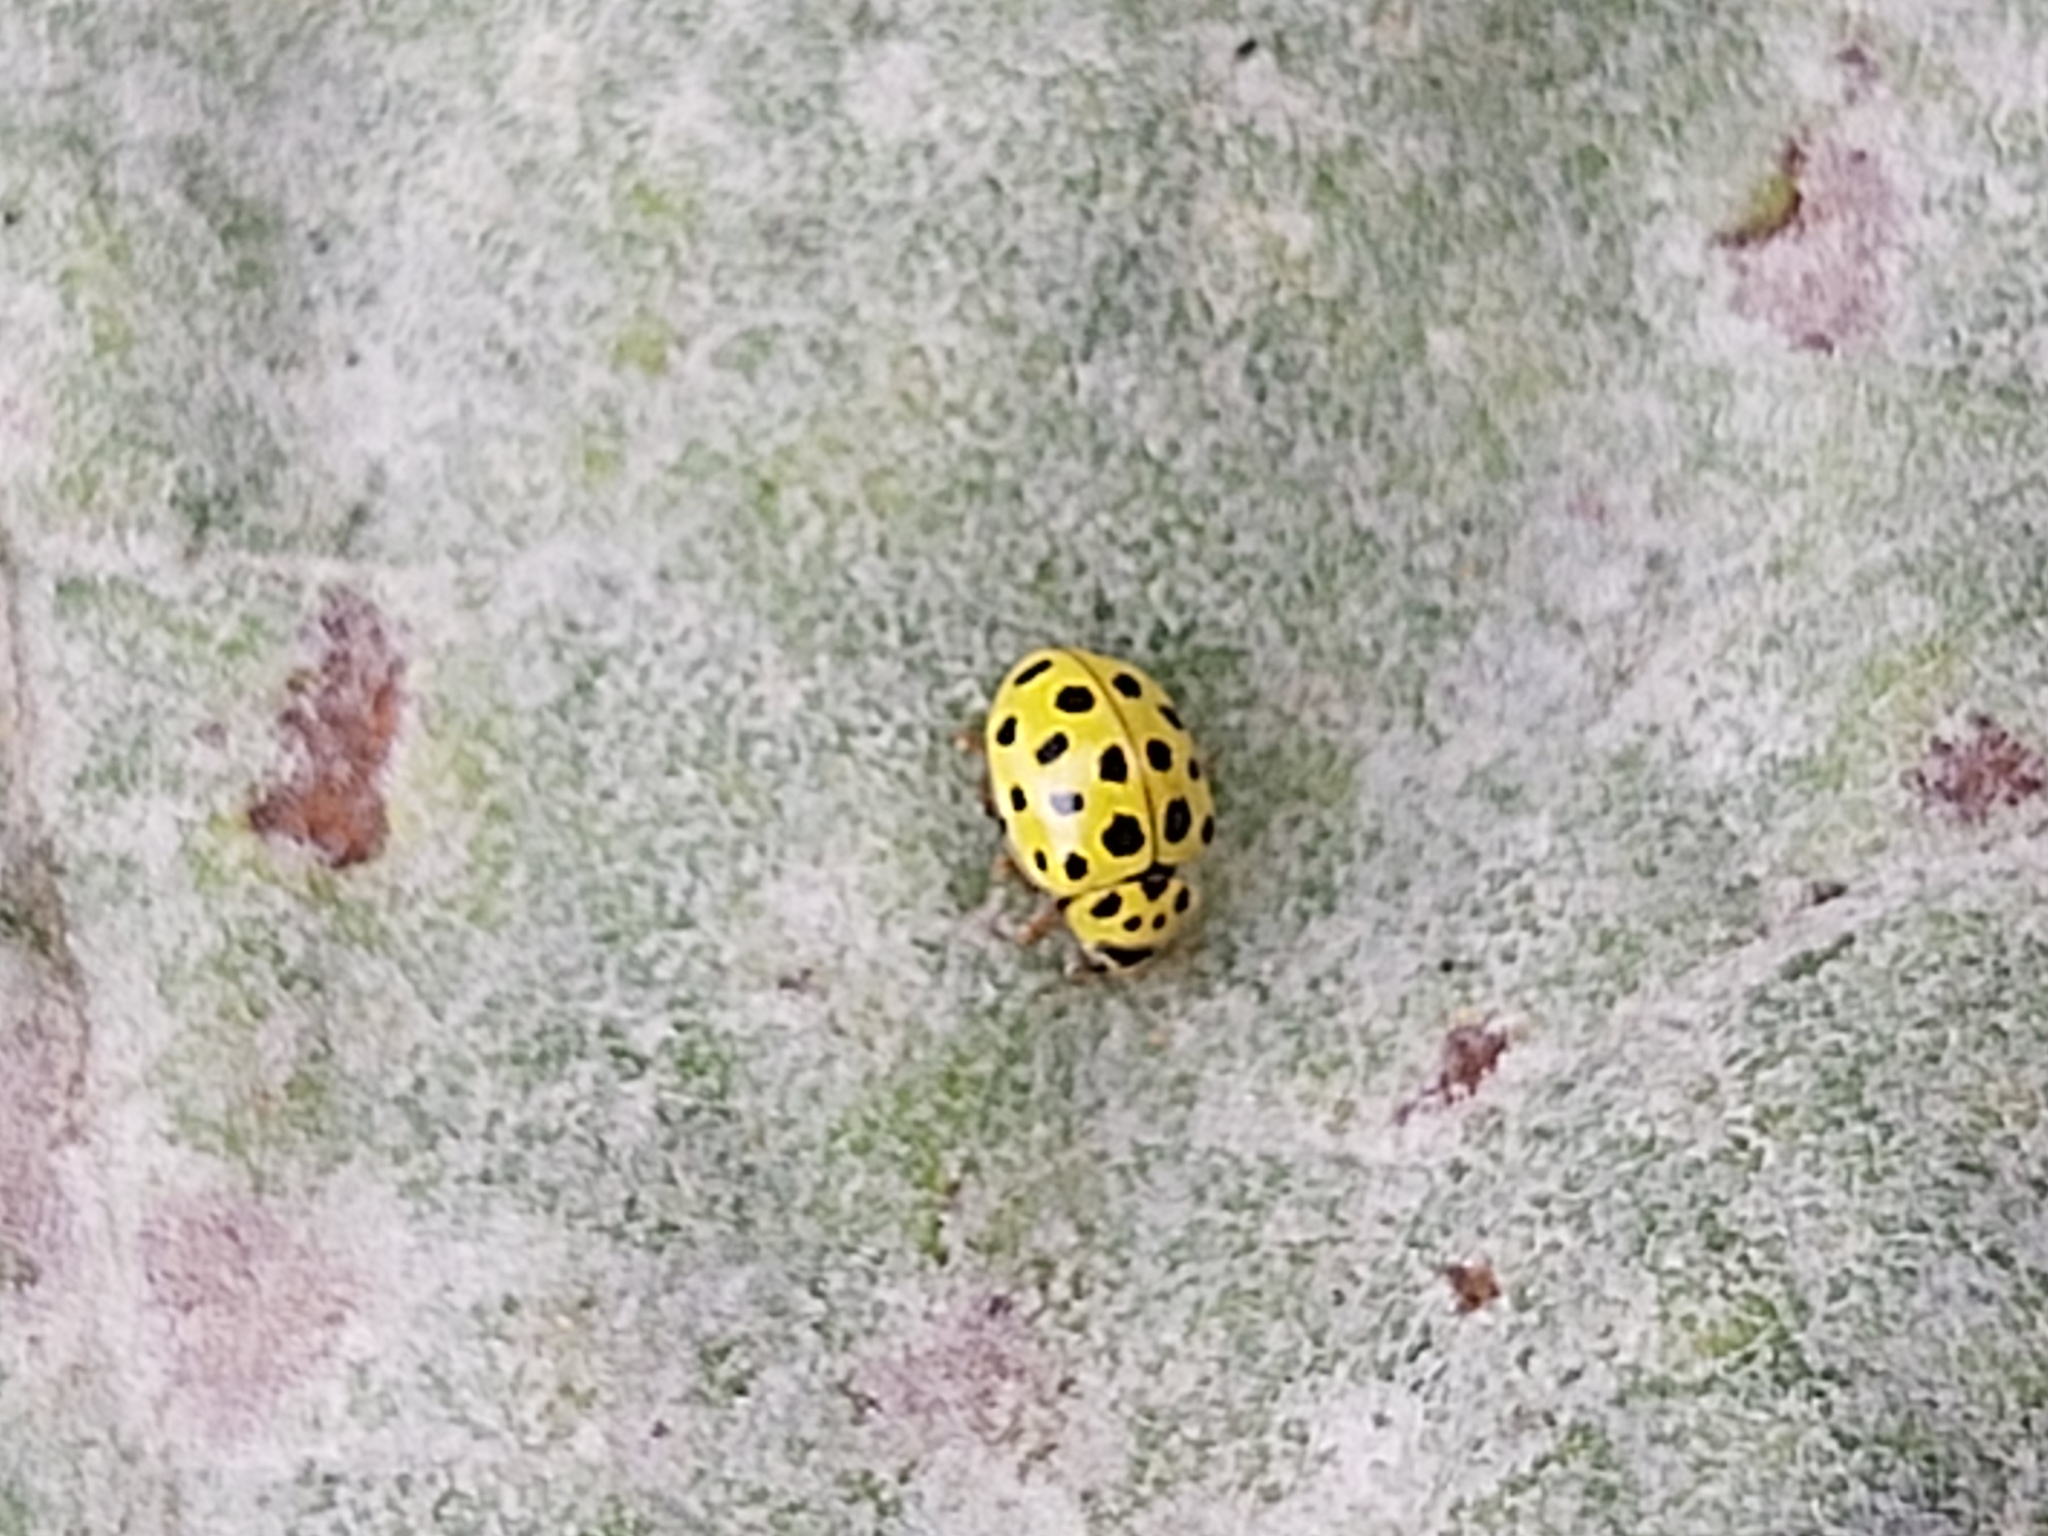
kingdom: Animalia
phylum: Arthropoda
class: Insecta
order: Coleoptera
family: Coccinellidae
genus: Psyllobora
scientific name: Psyllobora vigintiduopunctata
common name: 22-spot ladybird
